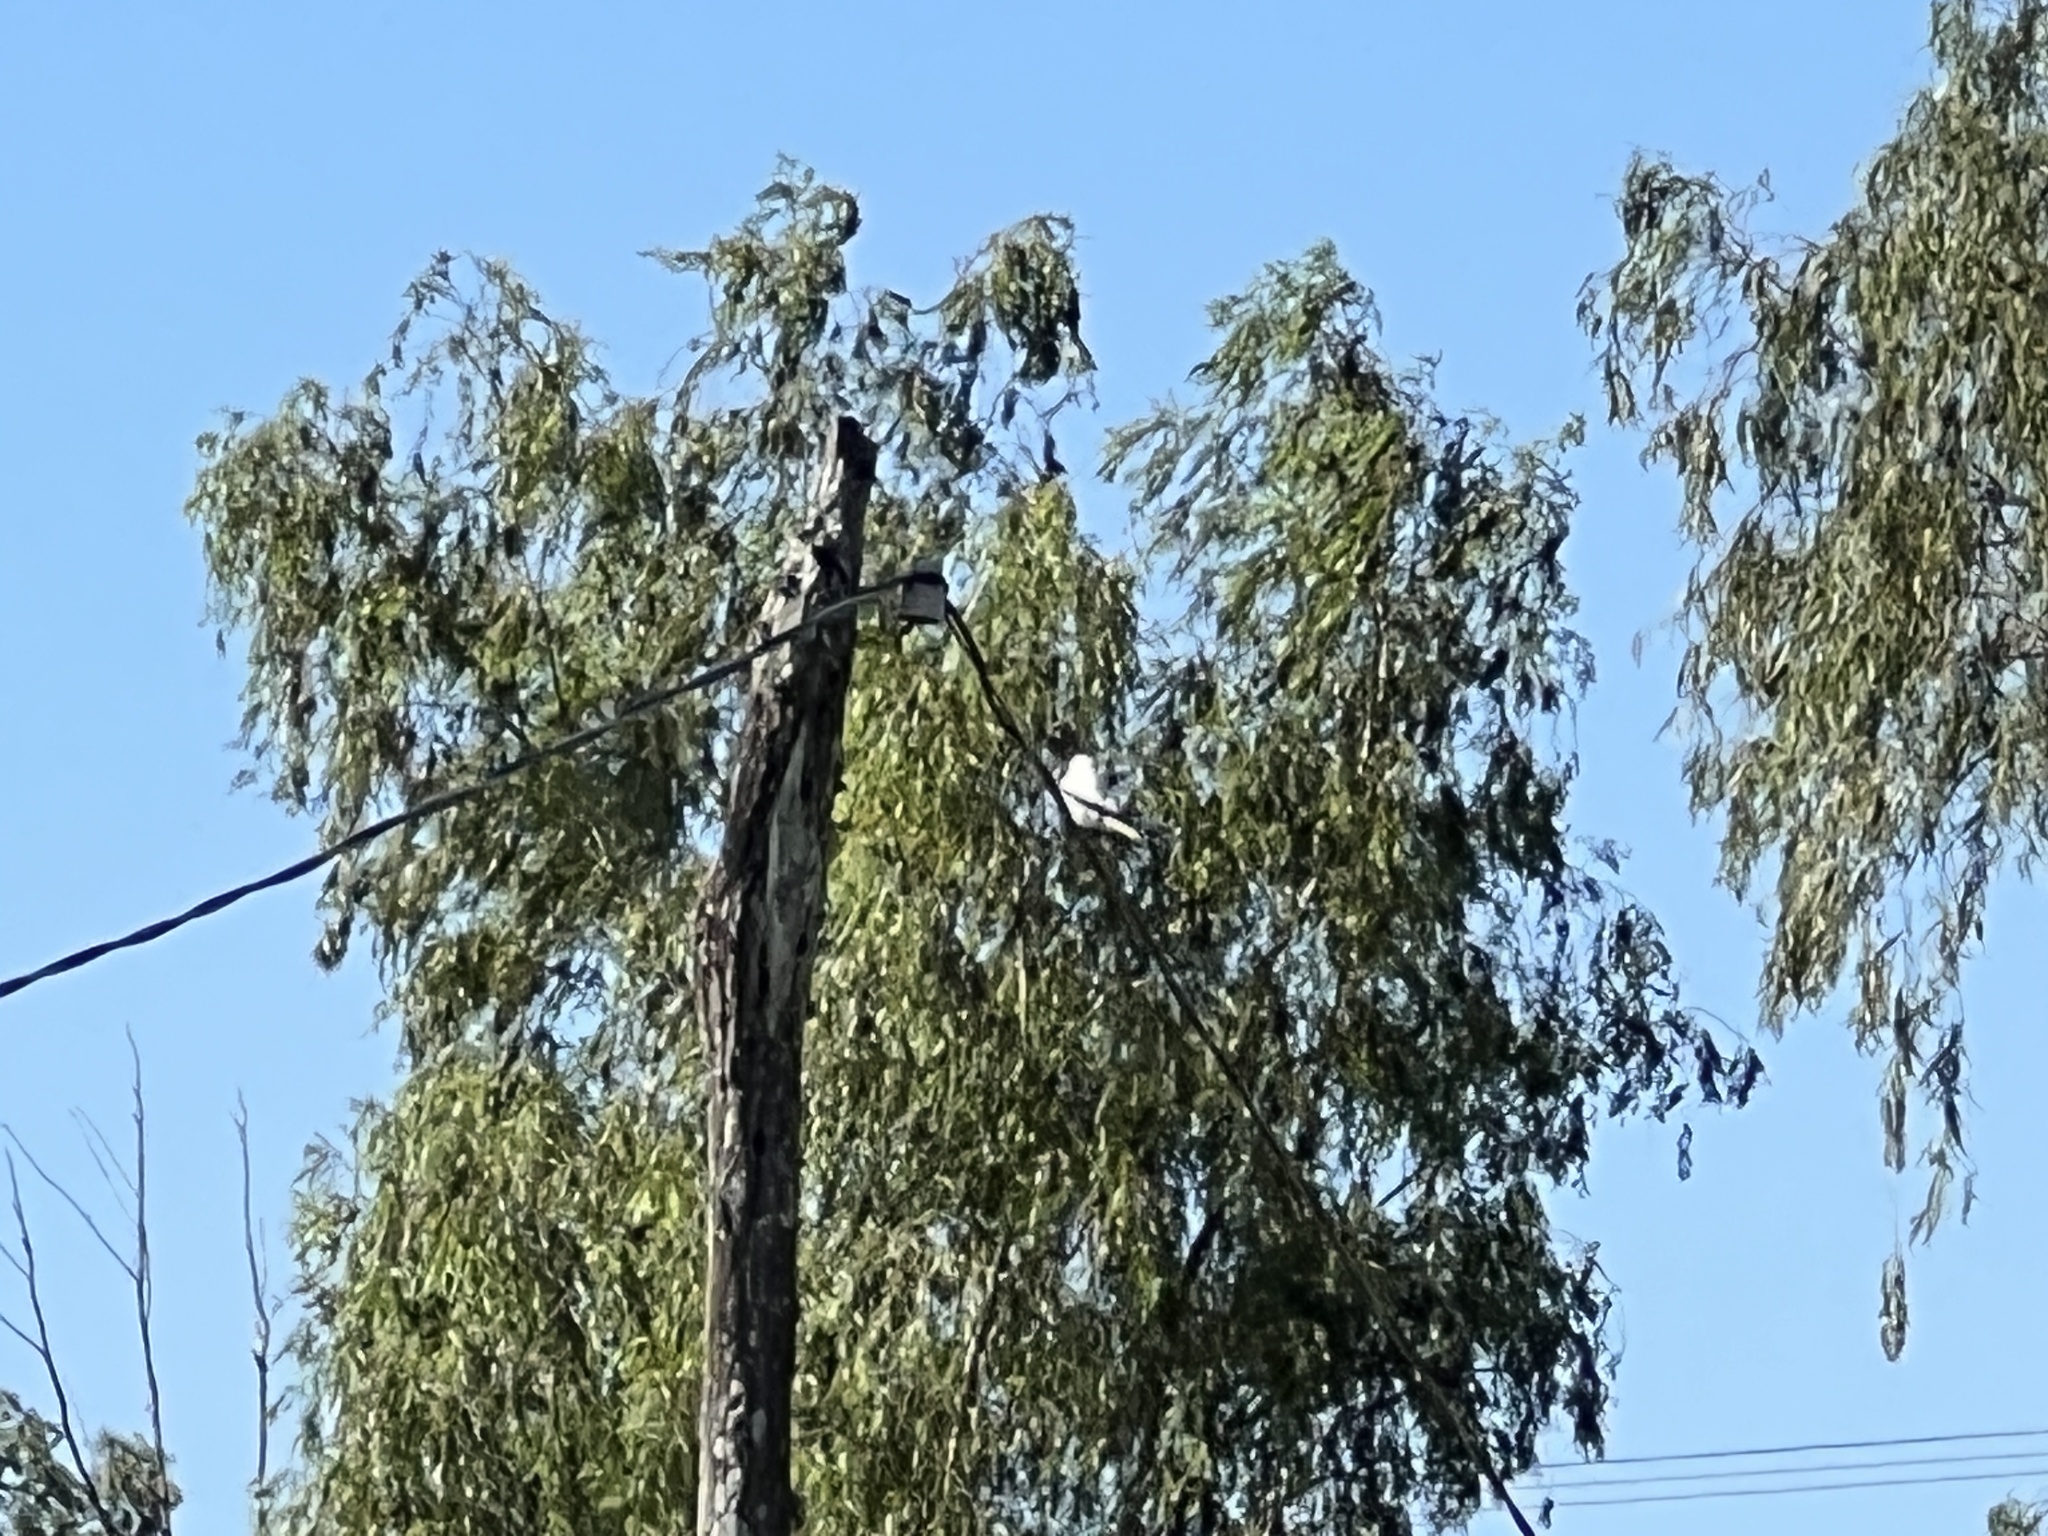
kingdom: Animalia
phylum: Chordata
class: Aves
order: Passeriformes
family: Tyrannidae
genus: Xolmis
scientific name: Xolmis irupero
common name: White monjita
